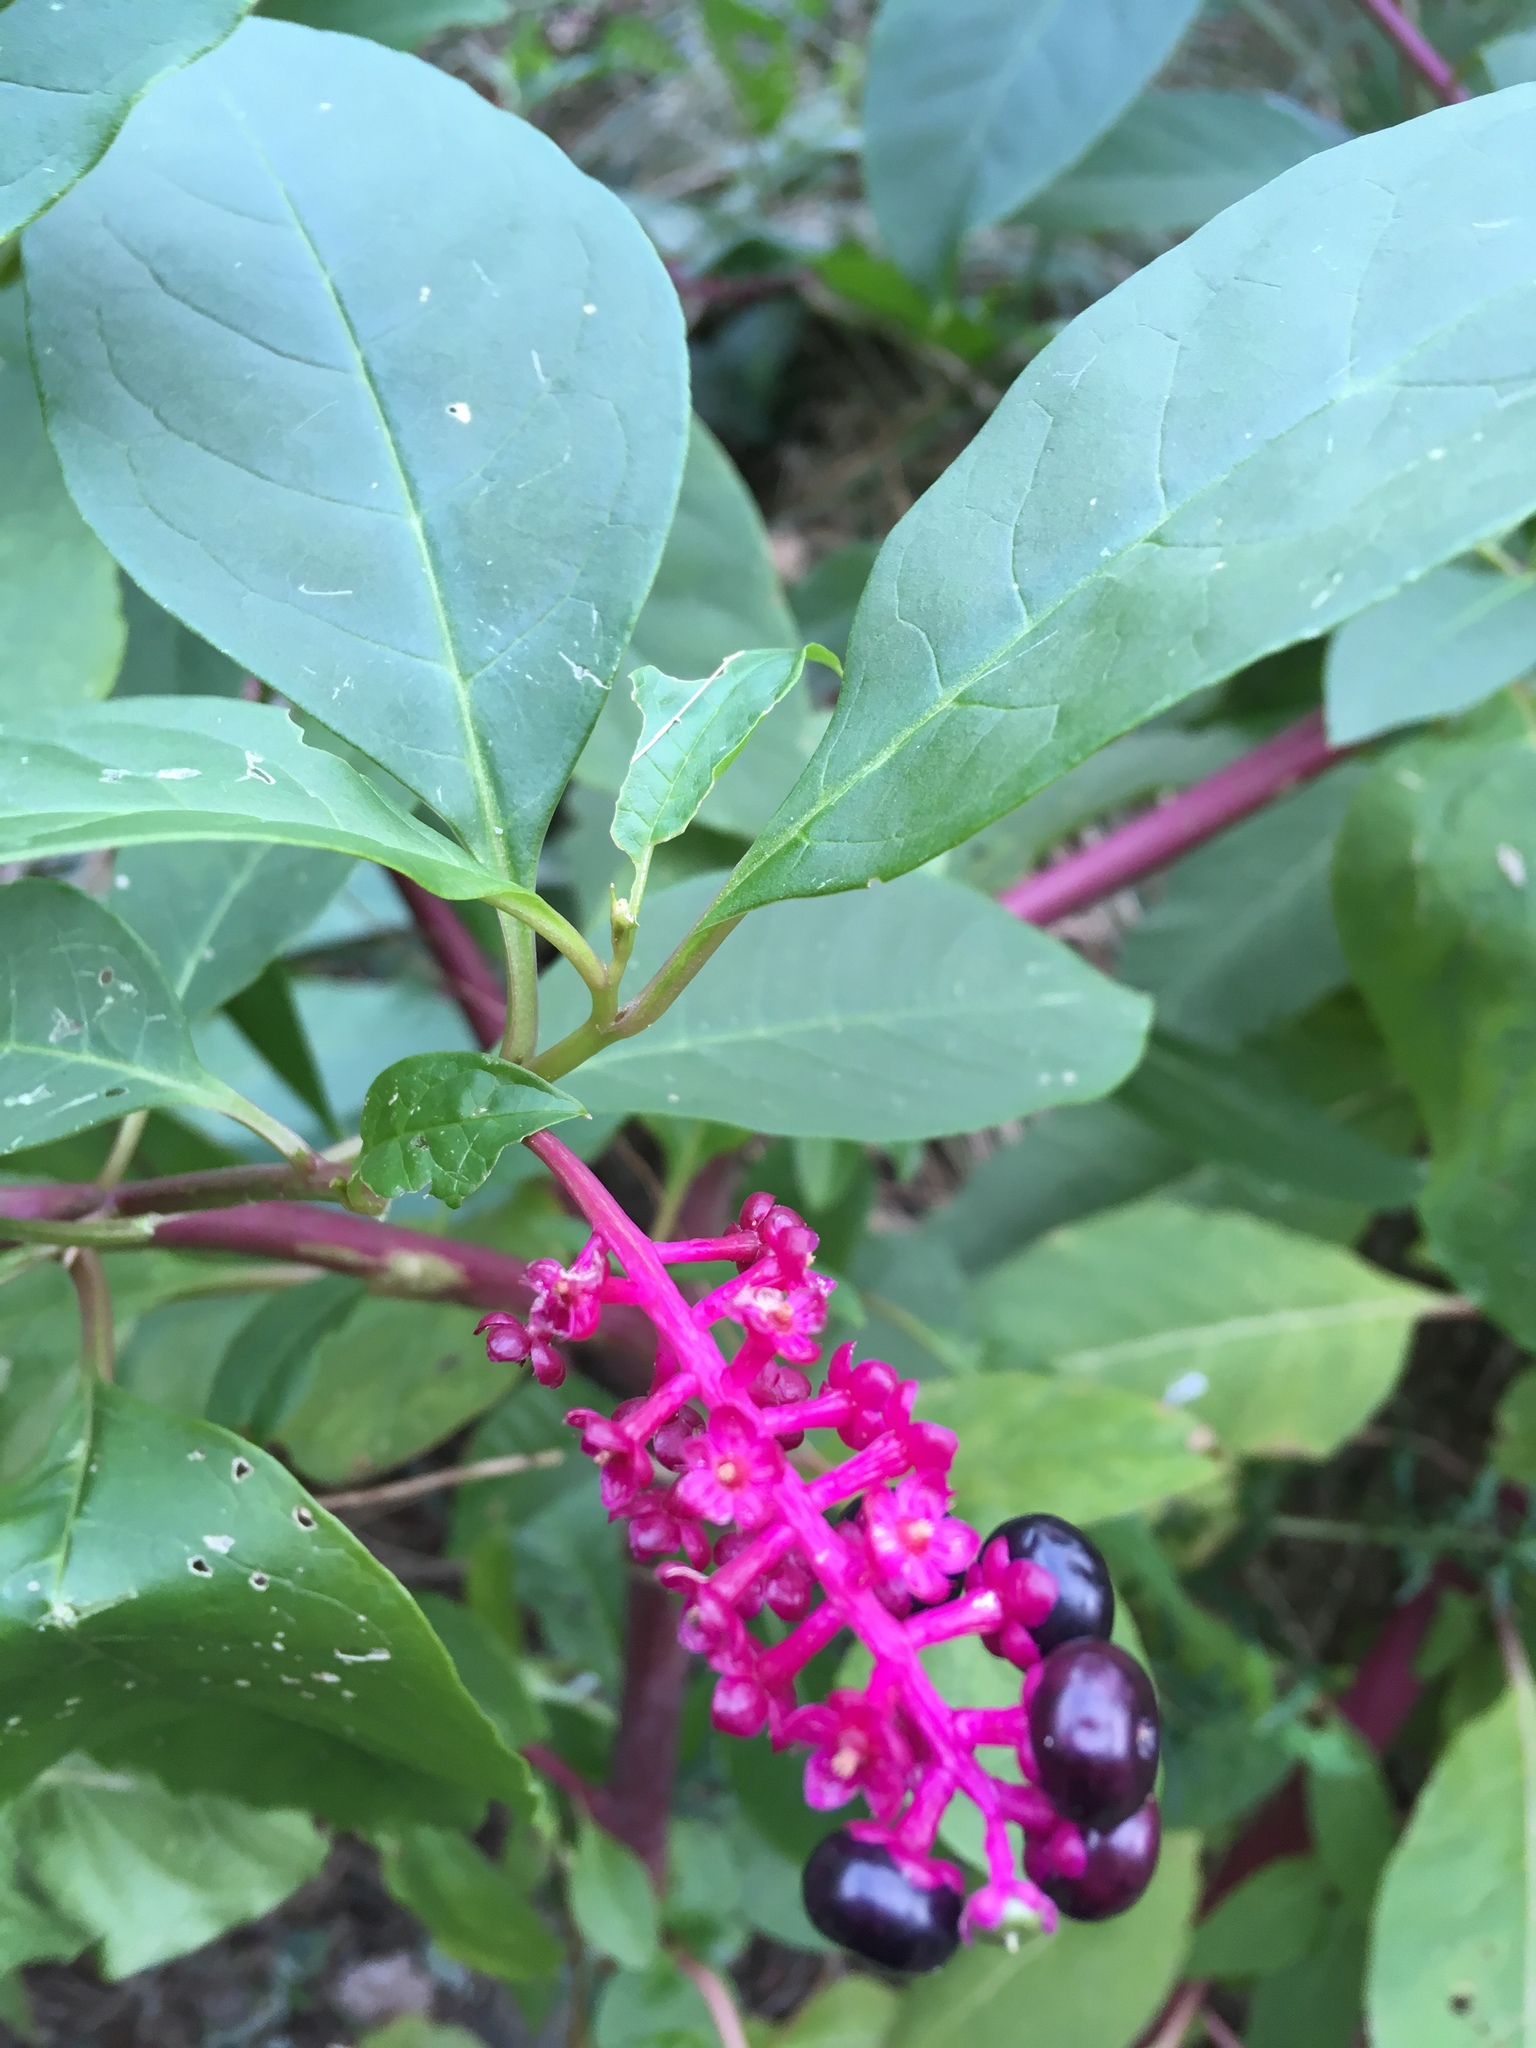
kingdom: Plantae
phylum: Tracheophyta
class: Magnoliopsida
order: Caryophyllales
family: Phytolaccaceae
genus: Phytolacca
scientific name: Phytolacca americana
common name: American pokeweed
